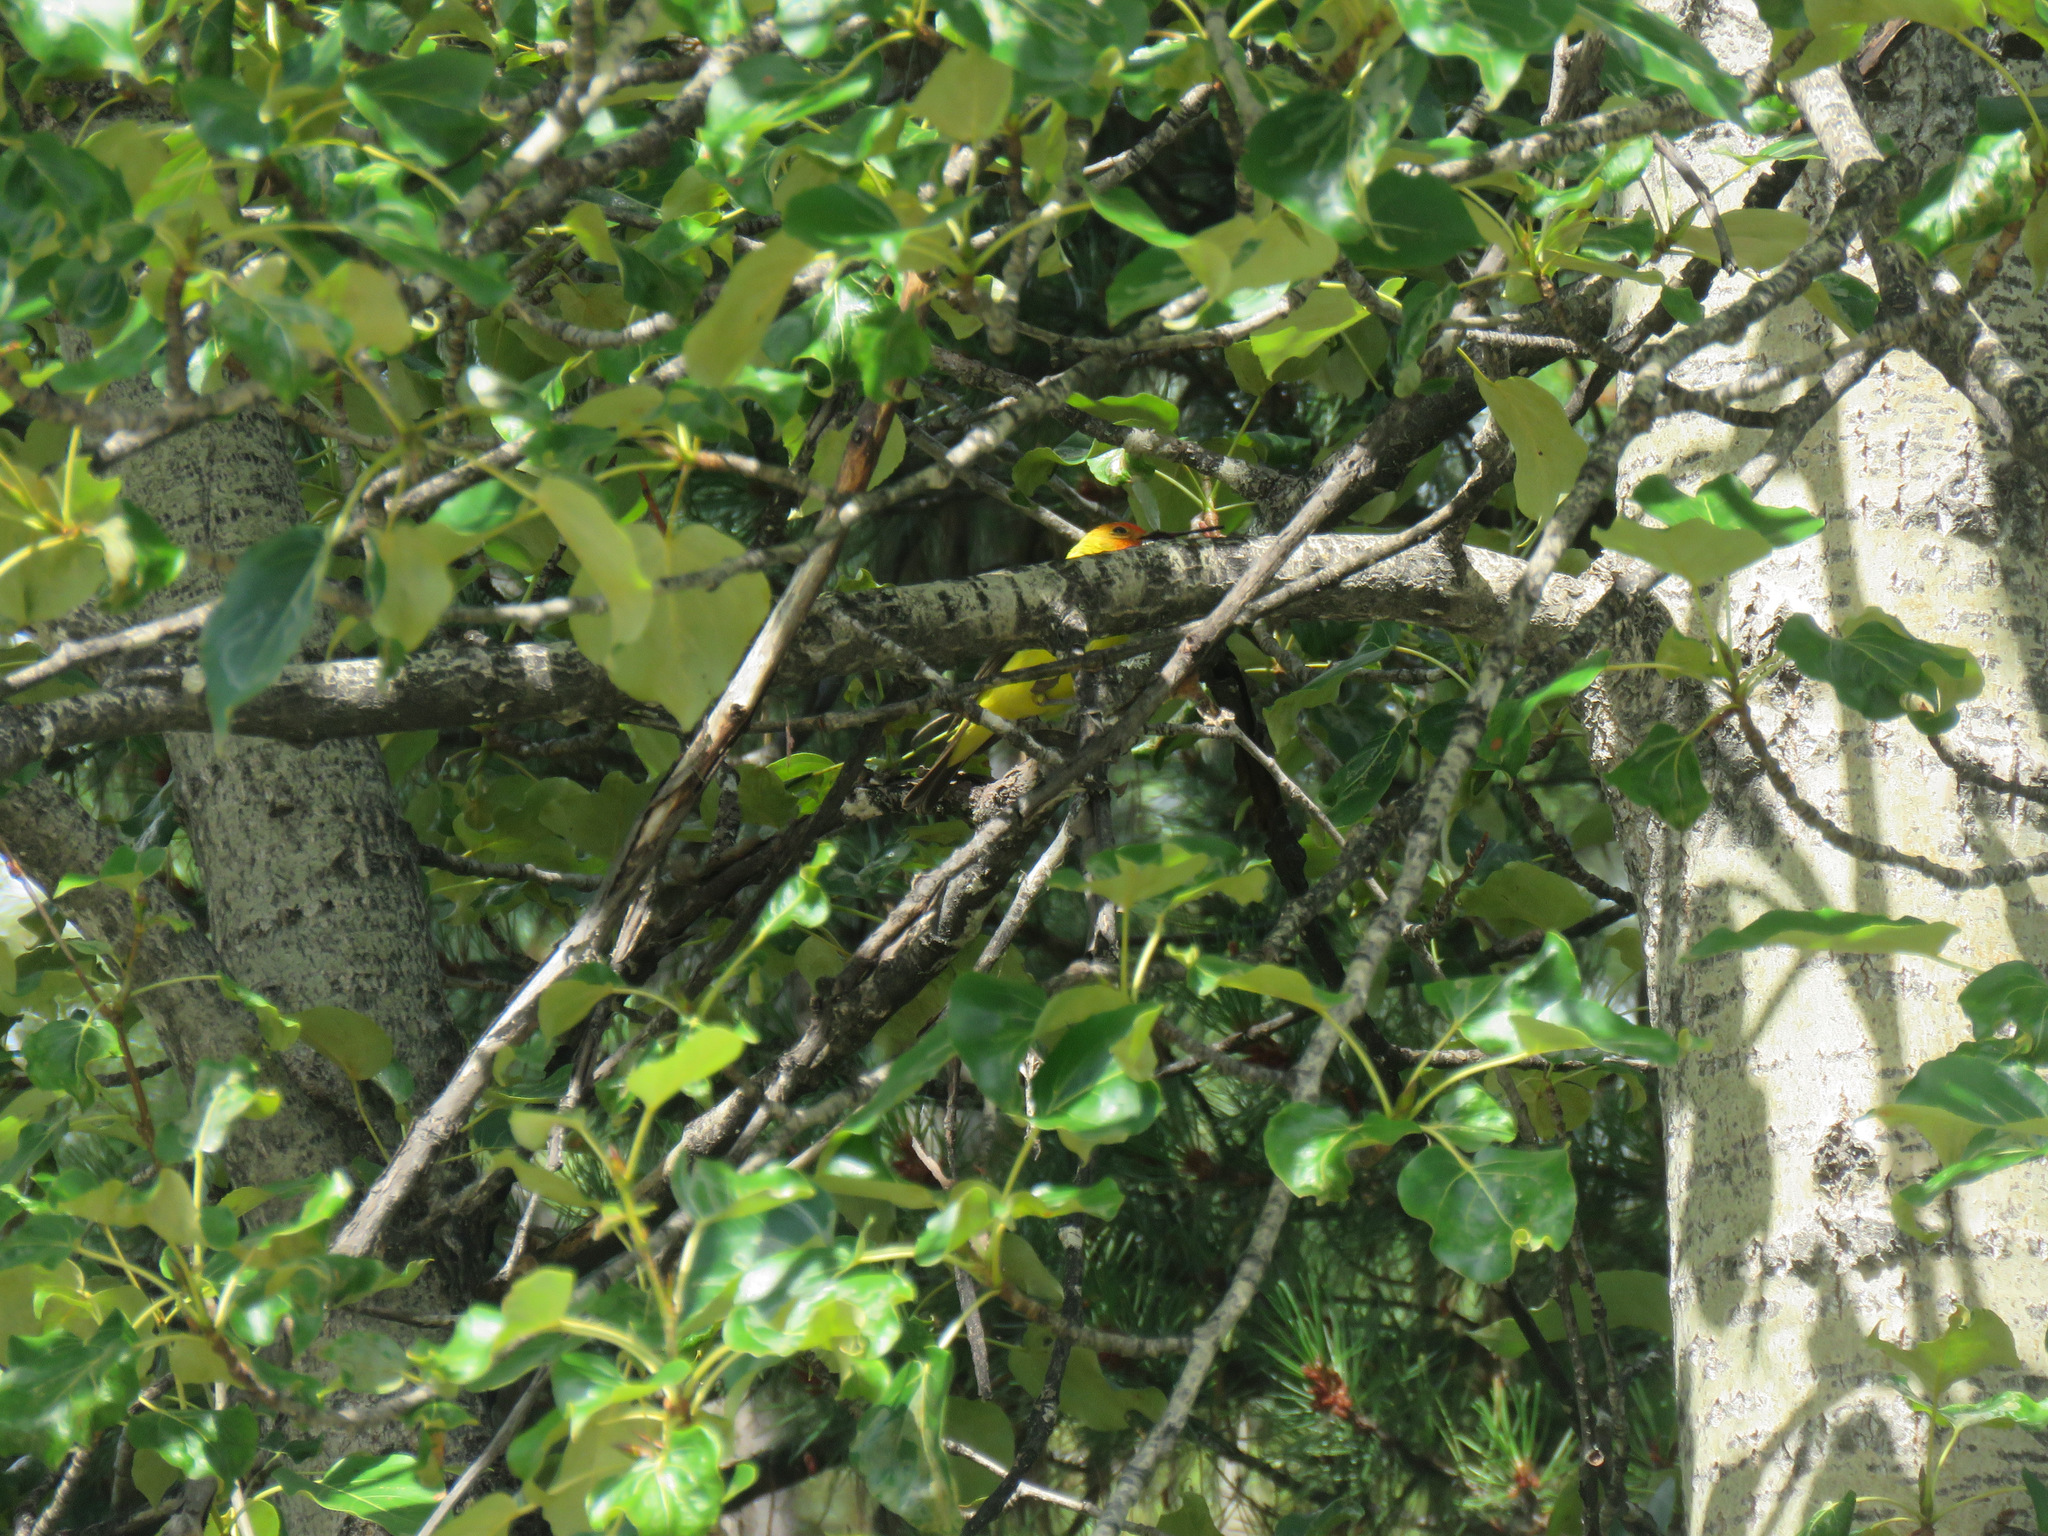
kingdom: Animalia
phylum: Chordata
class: Aves
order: Passeriformes
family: Cardinalidae
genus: Piranga
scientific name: Piranga ludoviciana
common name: Western tanager
